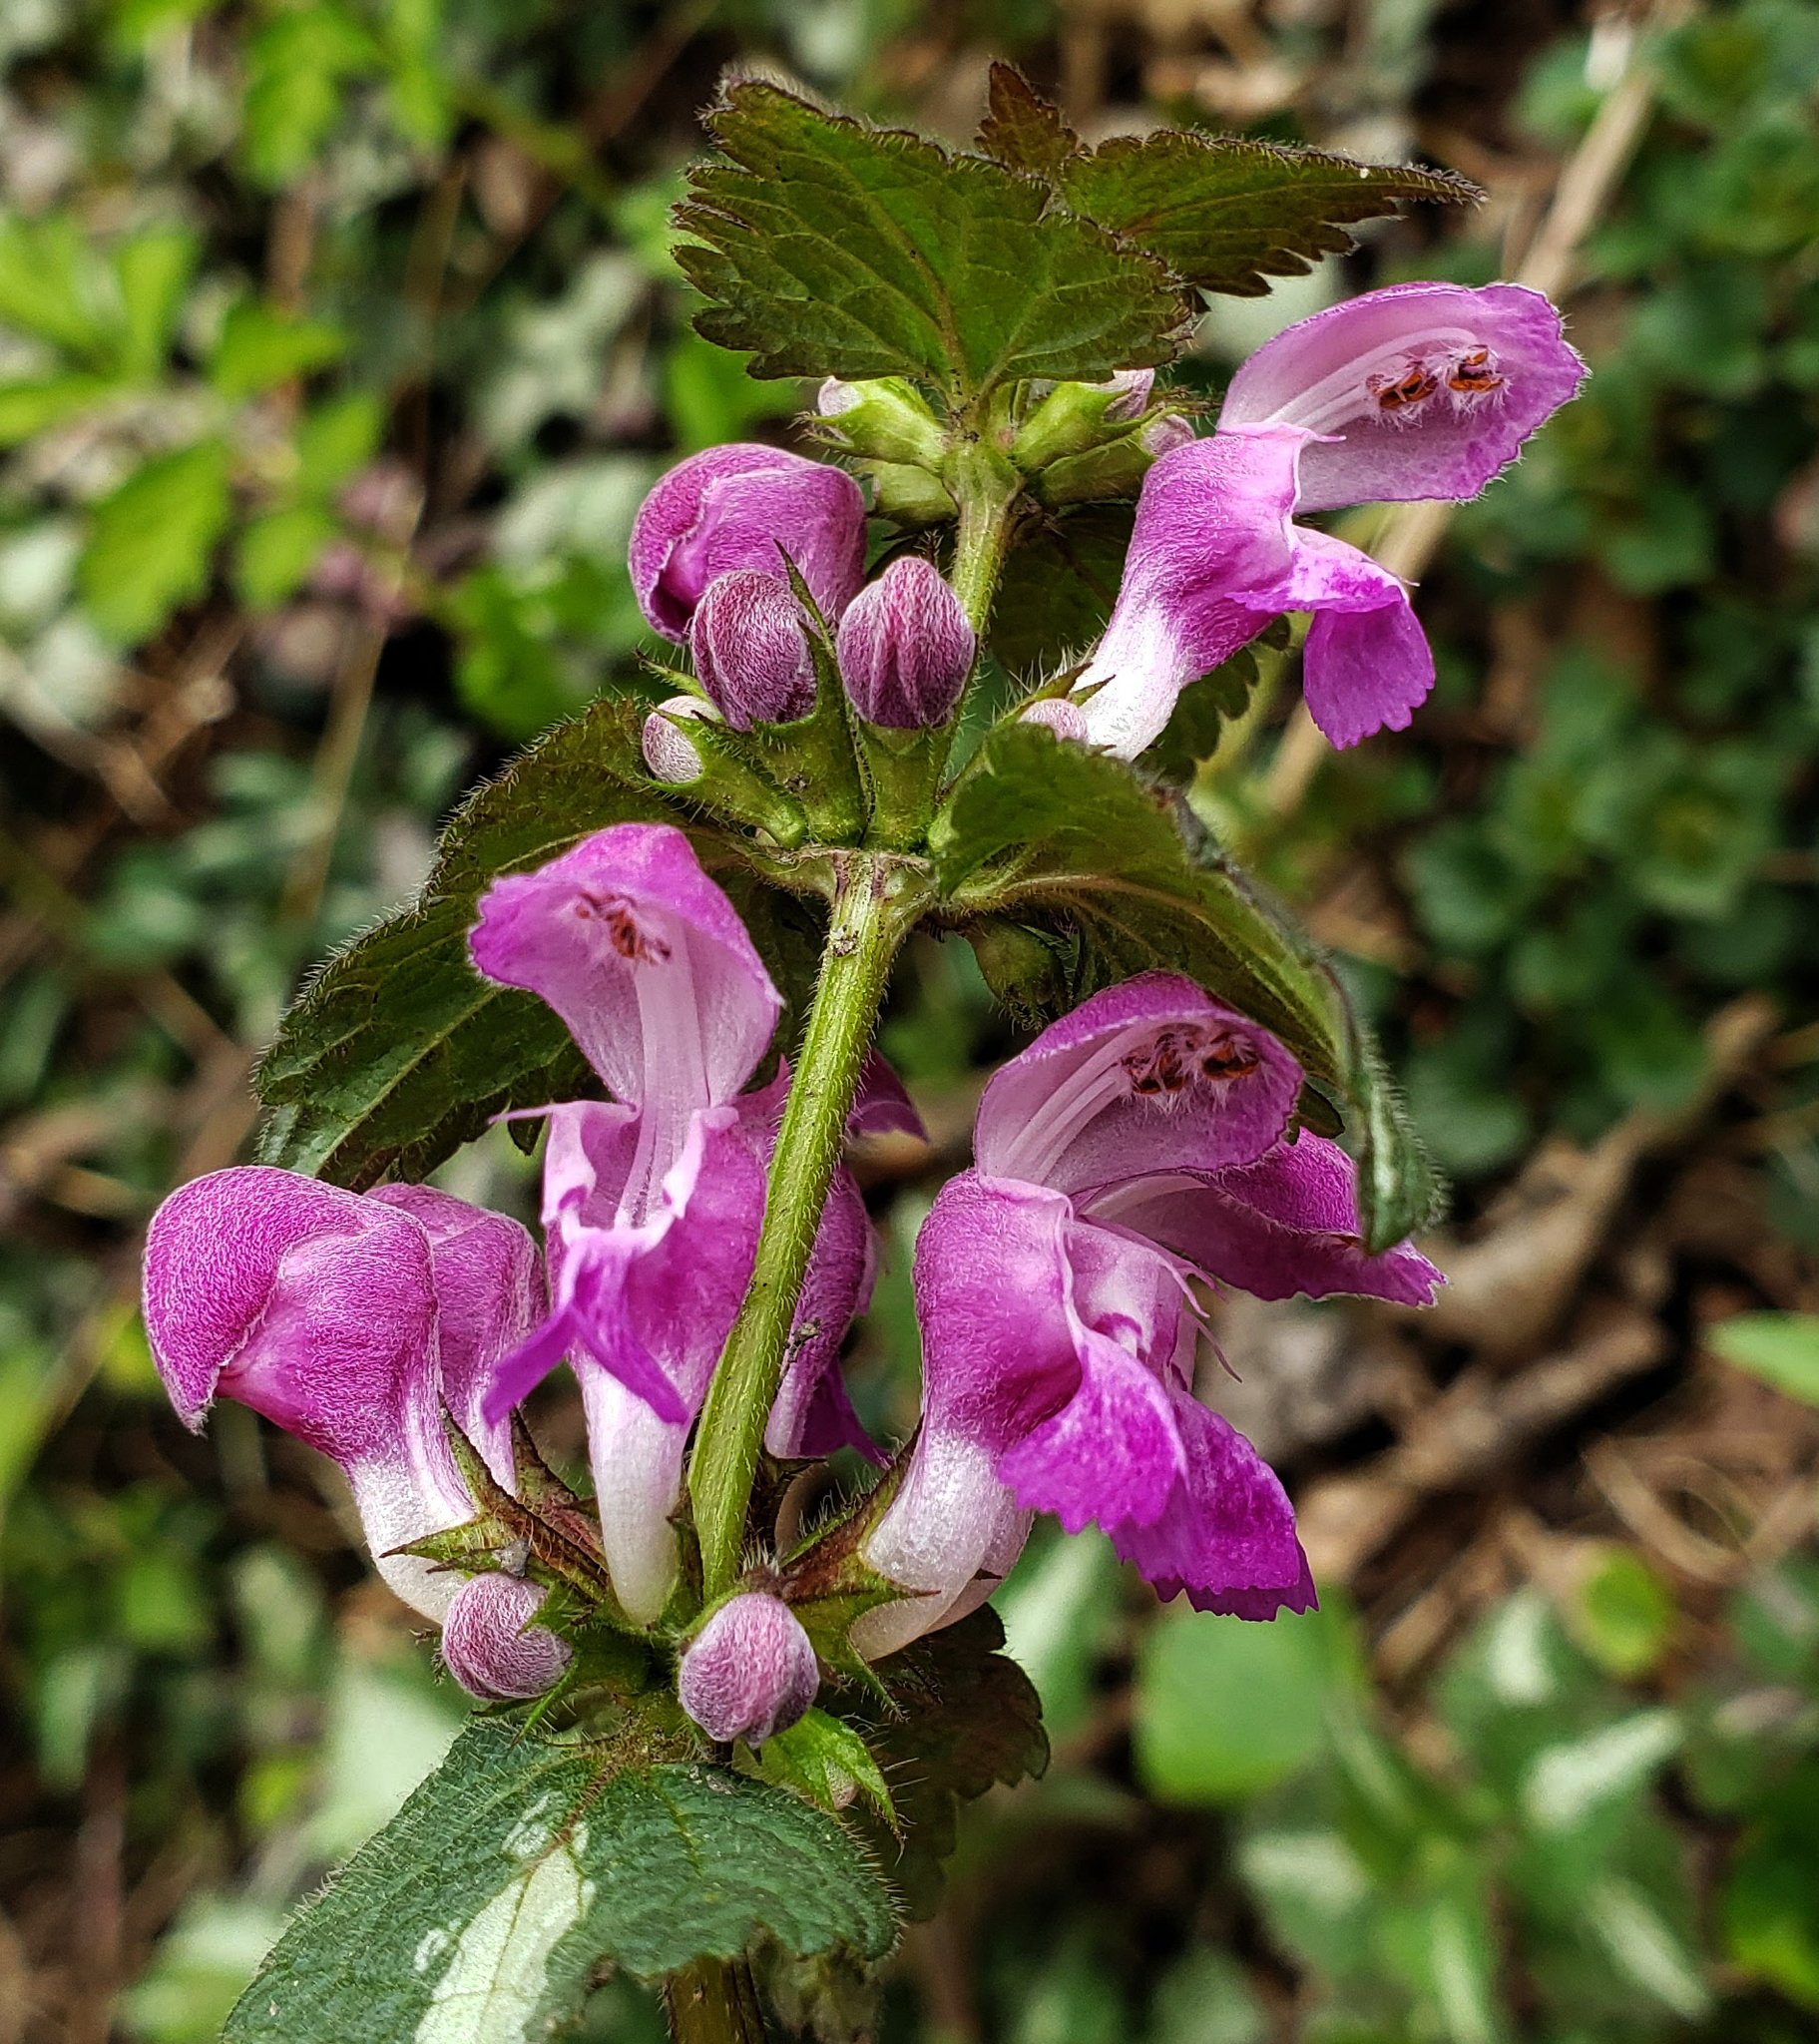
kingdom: Plantae
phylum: Tracheophyta
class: Magnoliopsida
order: Lamiales
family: Lamiaceae
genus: Lamium
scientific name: Lamium maculatum
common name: Spotted dead-nettle
